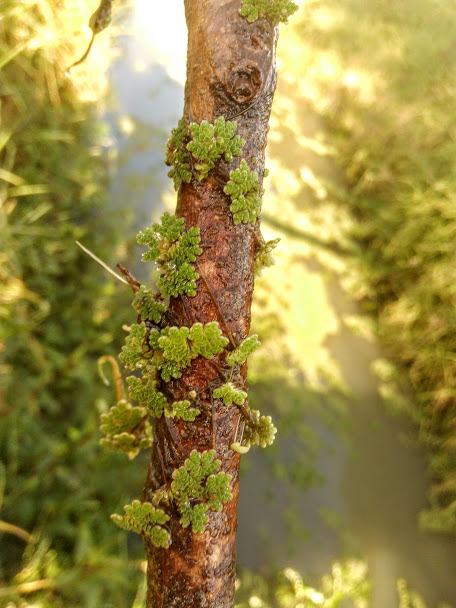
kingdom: Plantae
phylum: Tracheophyta
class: Polypodiopsida
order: Salviniales
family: Salviniaceae
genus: Azolla
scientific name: Azolla filiculoides
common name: Water fern
